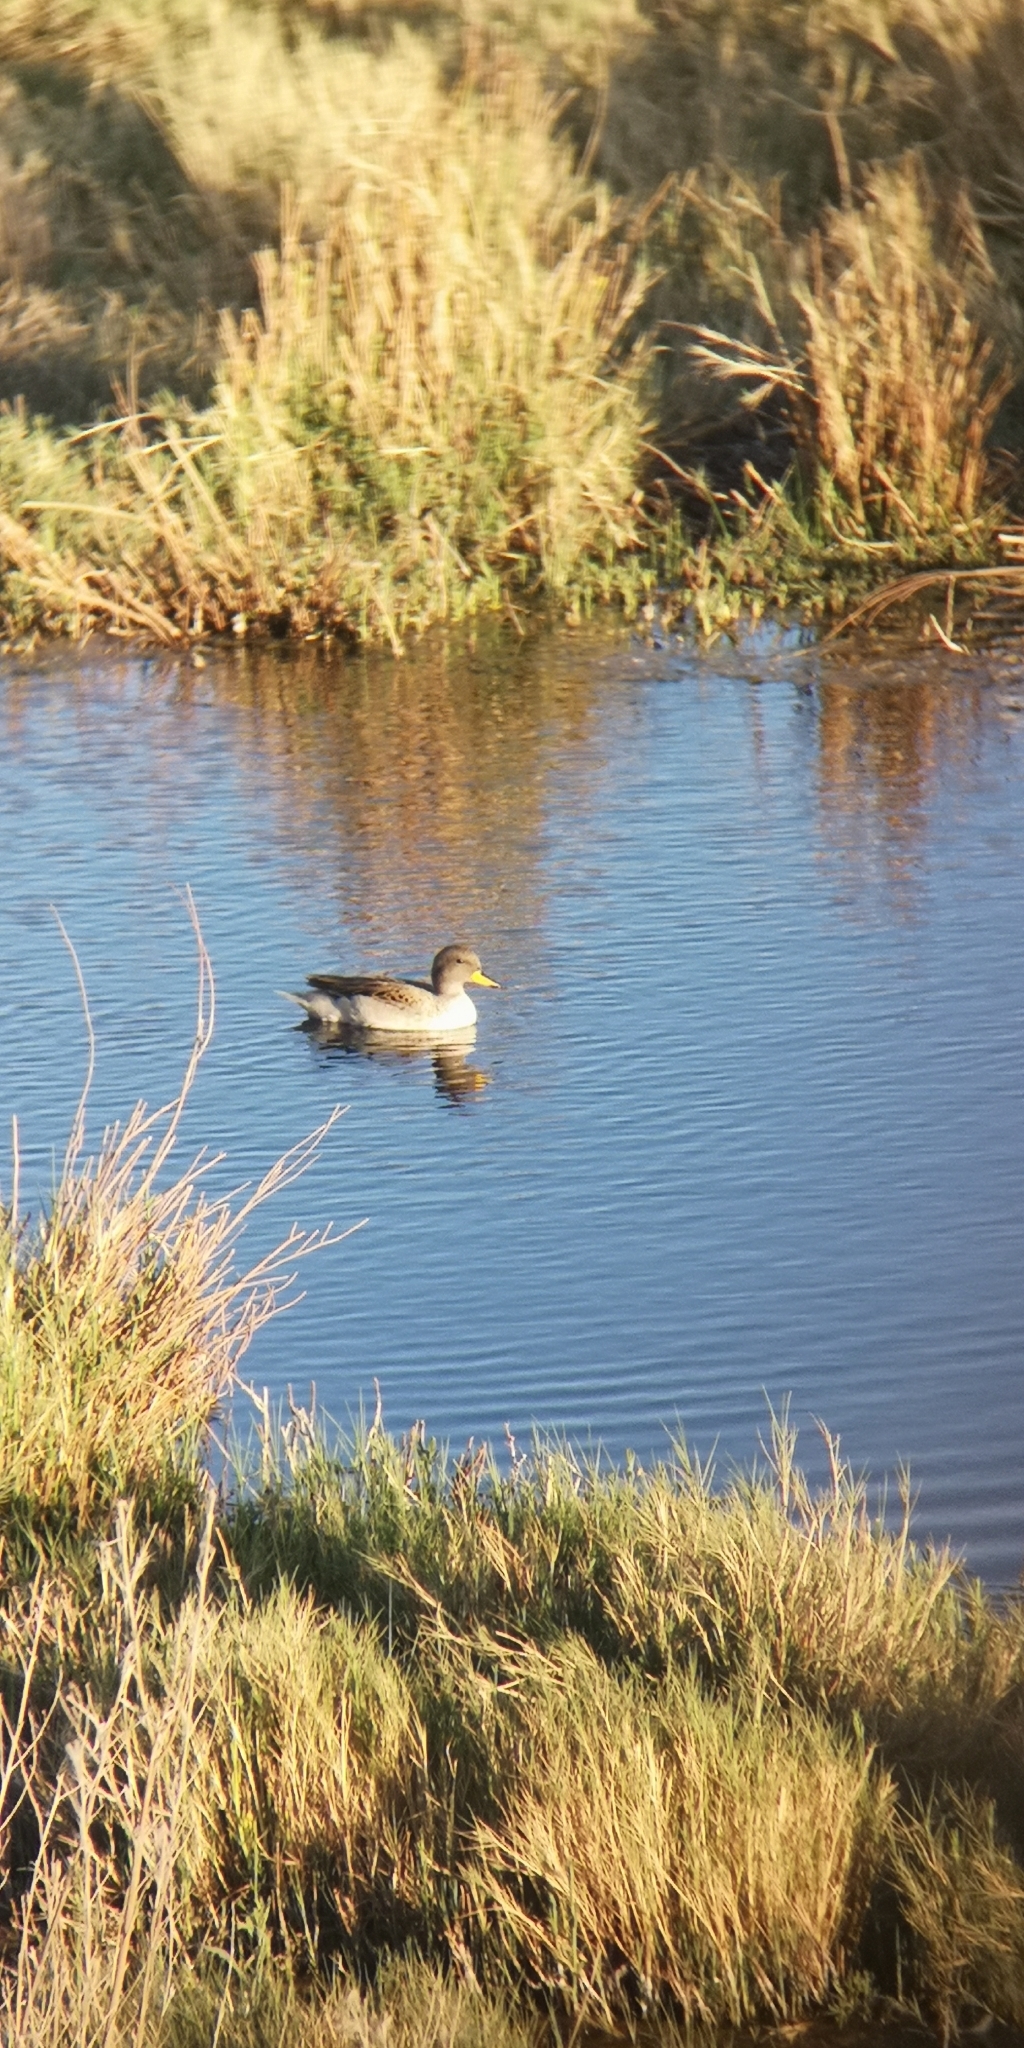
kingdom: Animalia
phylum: Chordata
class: Aves
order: Anseriformes
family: Anatidae
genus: Anas
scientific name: Anas flavirostris
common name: Yellow-billed teal
